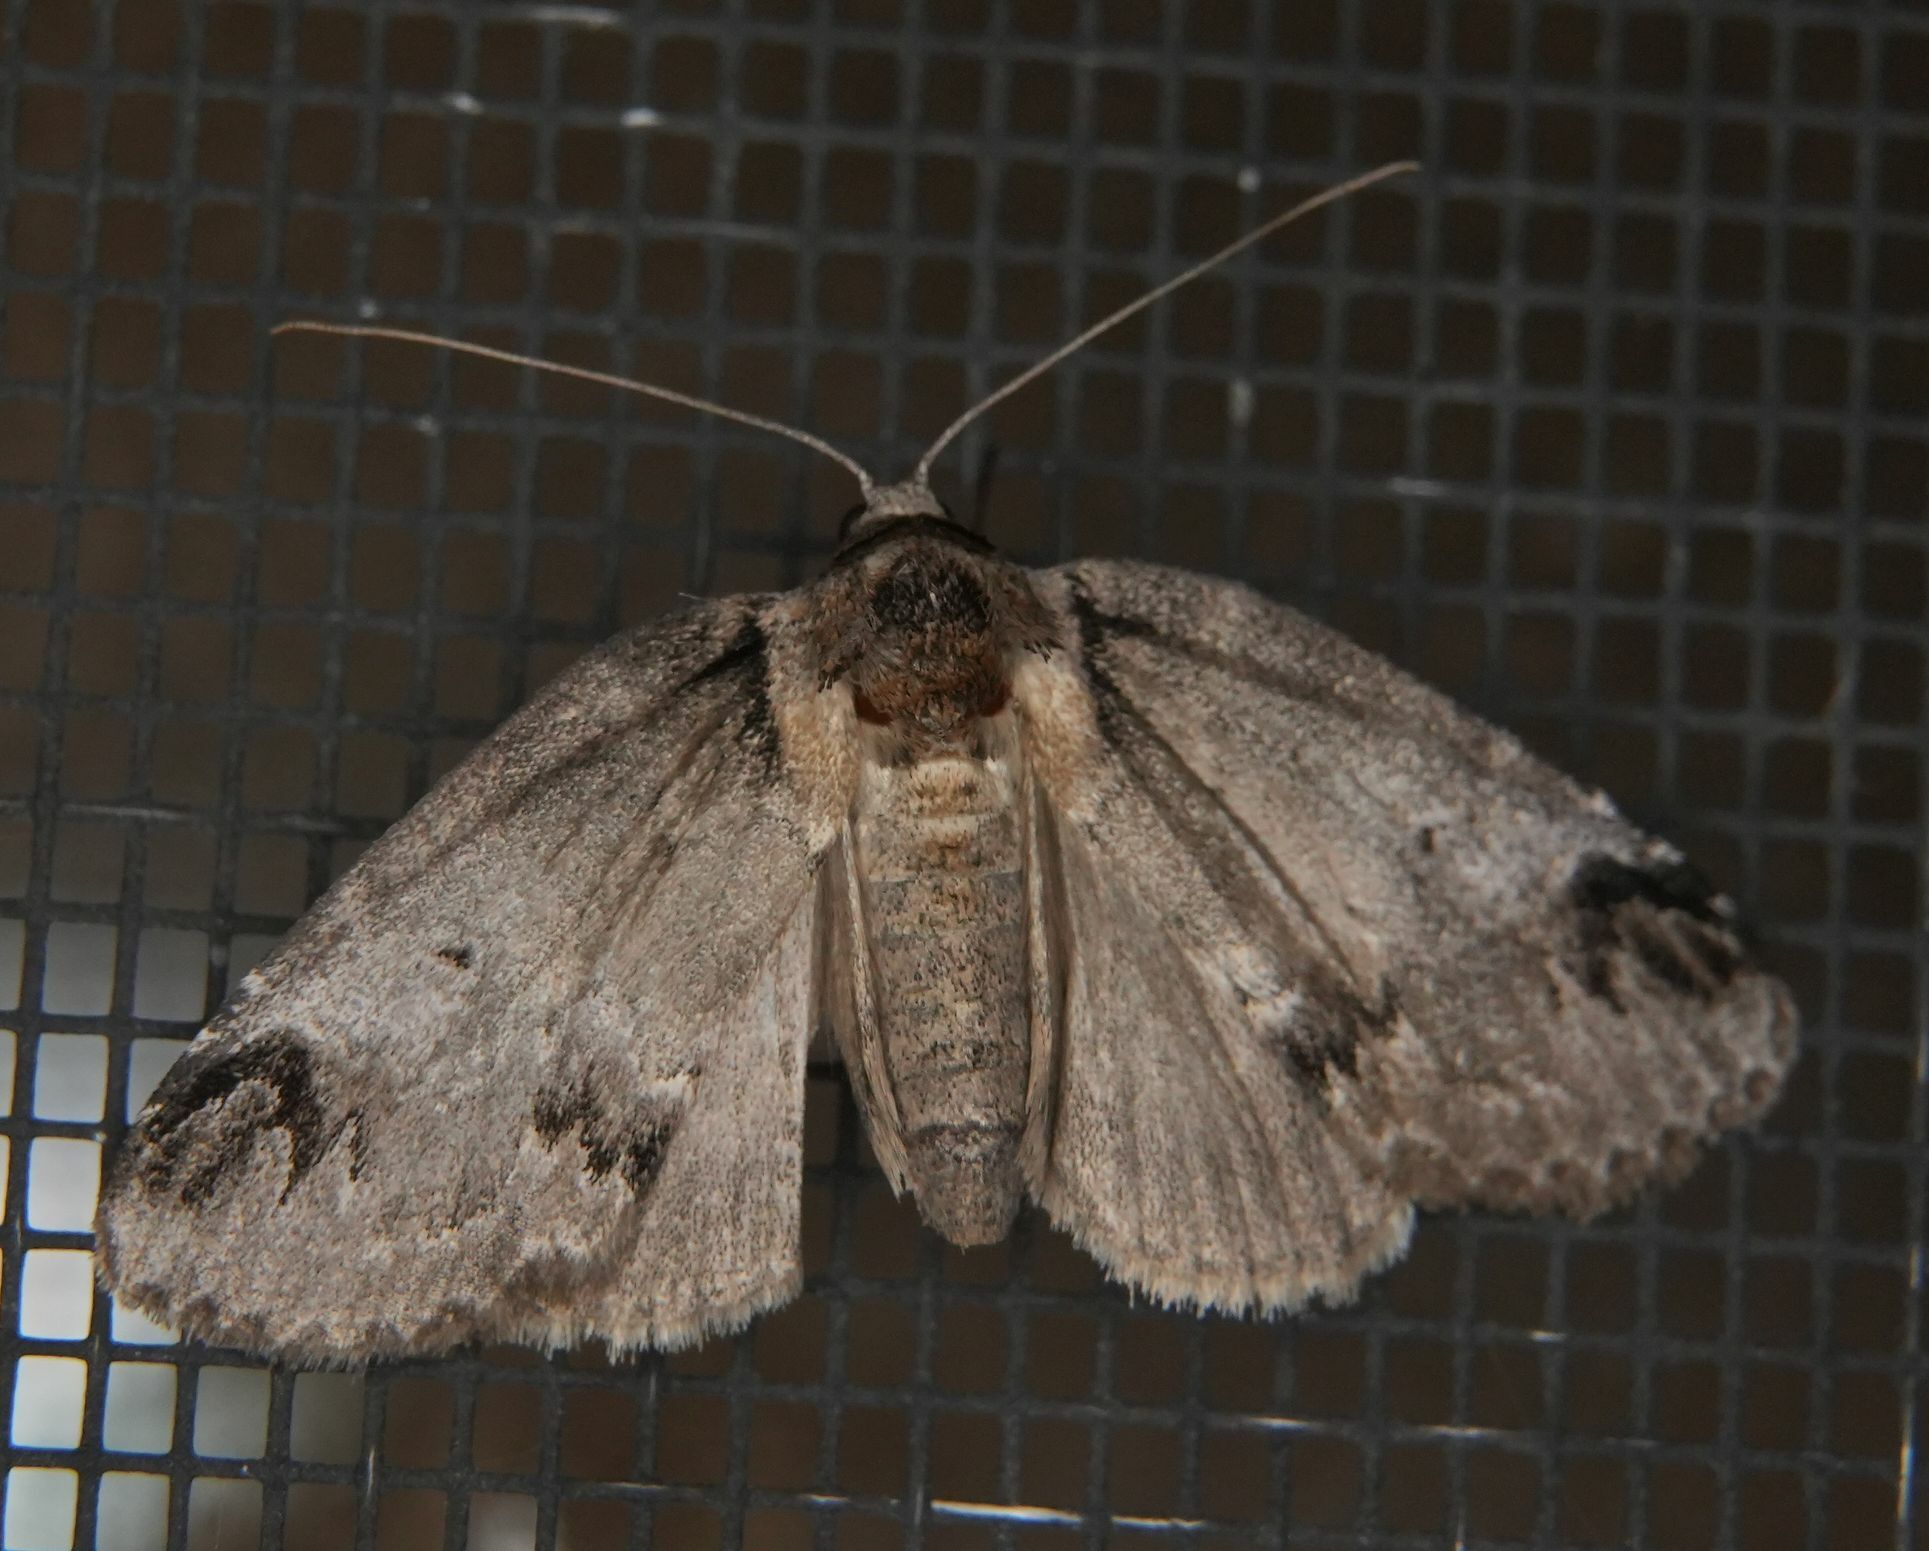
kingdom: Animalia
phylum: Arthropoda
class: Insecta
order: Lepidoptera
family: Nolidae
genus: Baileya
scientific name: Baileya dormitans
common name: Sleeping baileya moth
